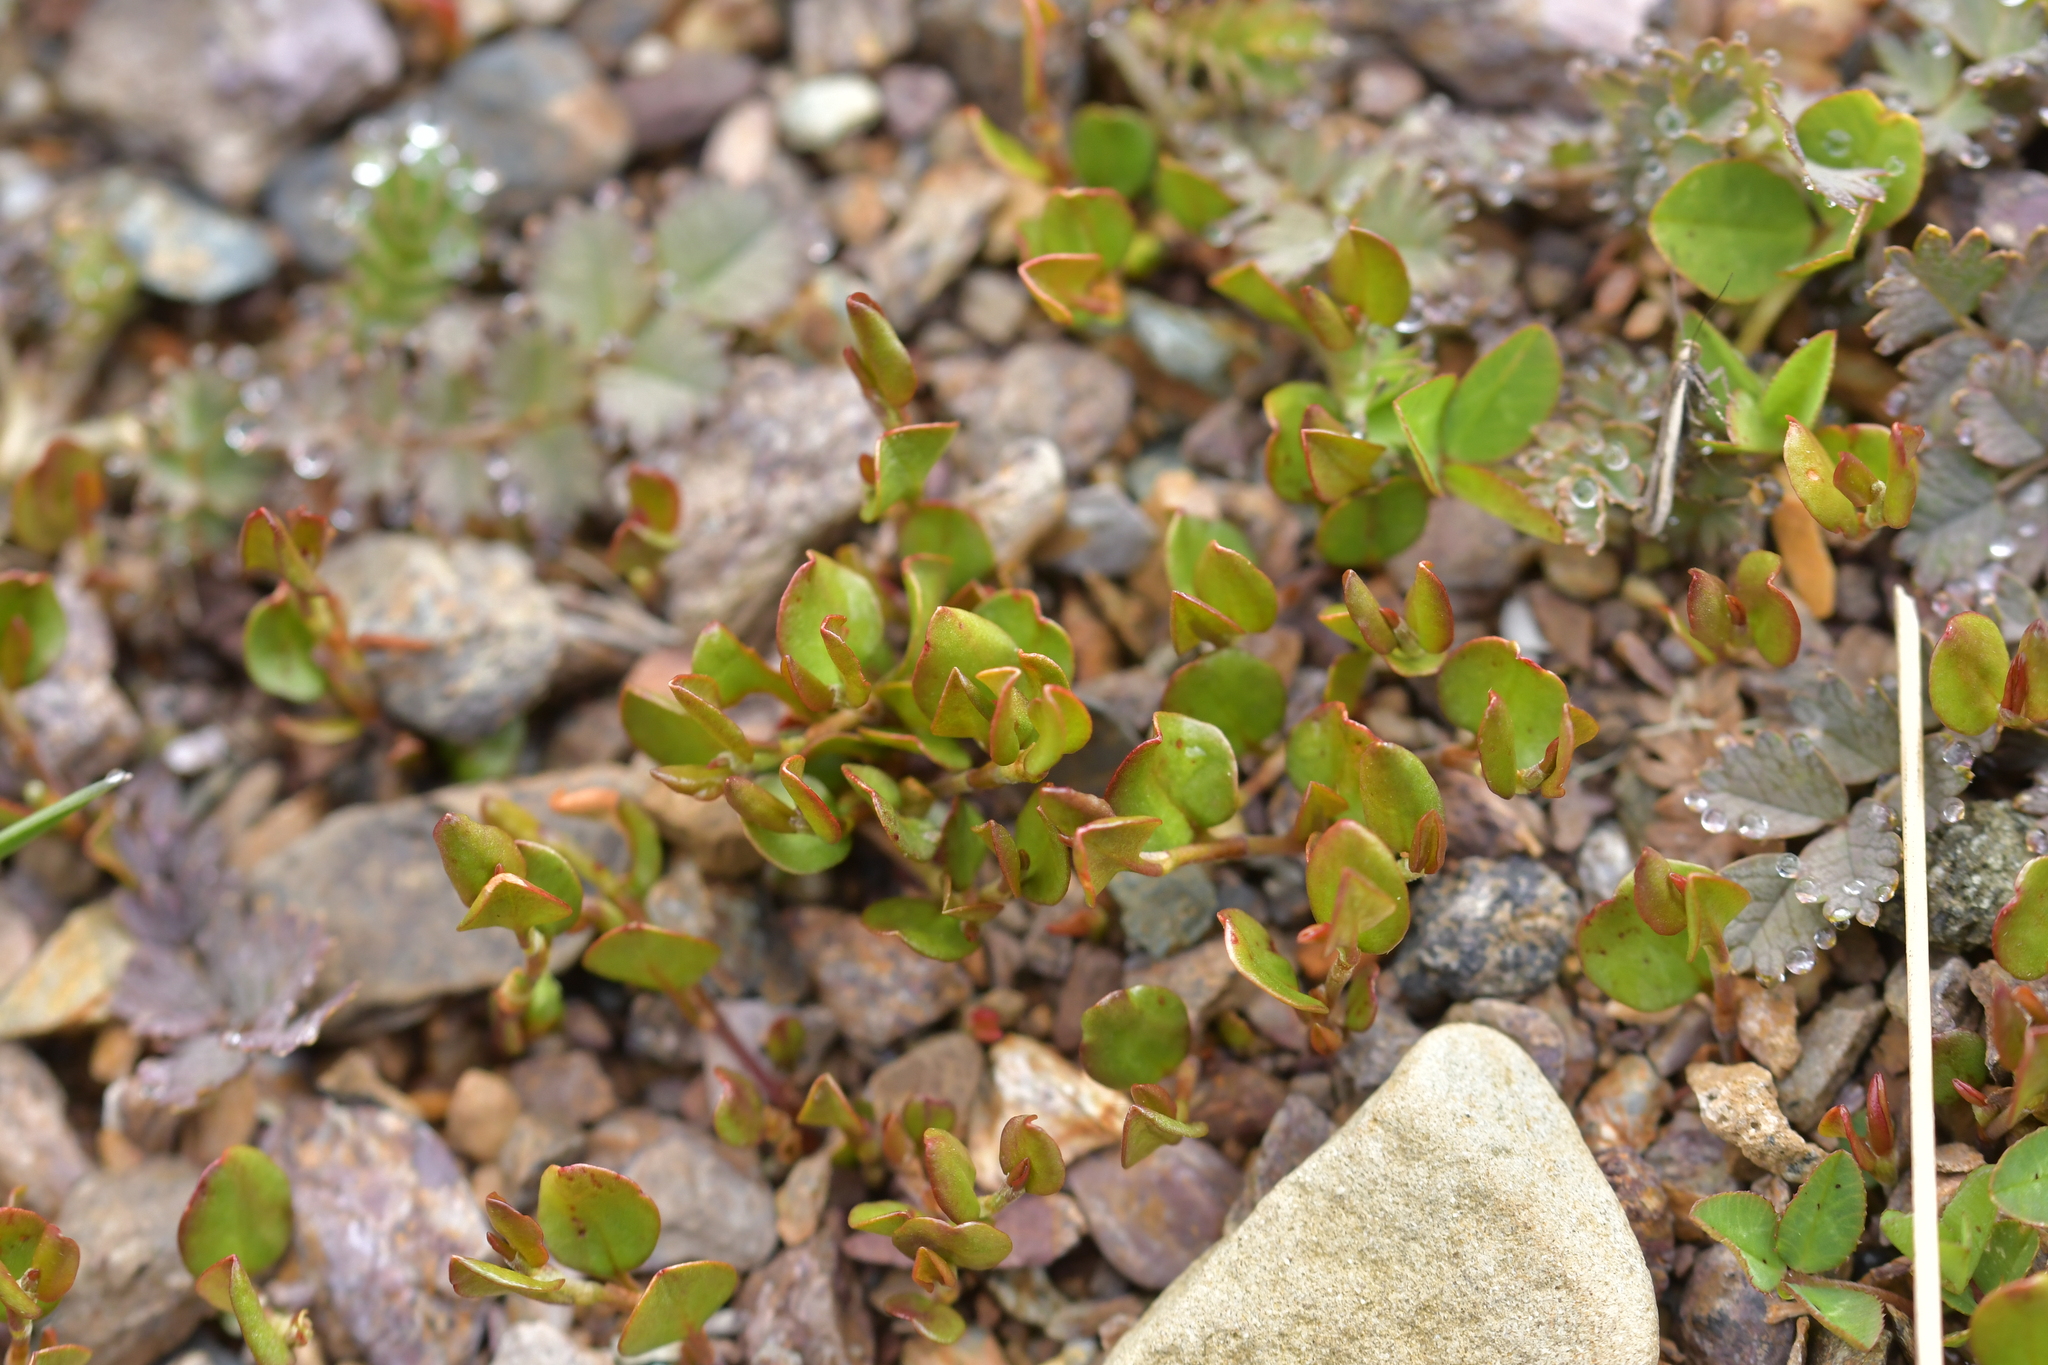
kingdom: Plantae
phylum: Tracheophyta
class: Magnoliopsida
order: Caryophyllales
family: Polygonaceae
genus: Muehlenbeckia
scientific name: Muehlenbeckia axillaris
